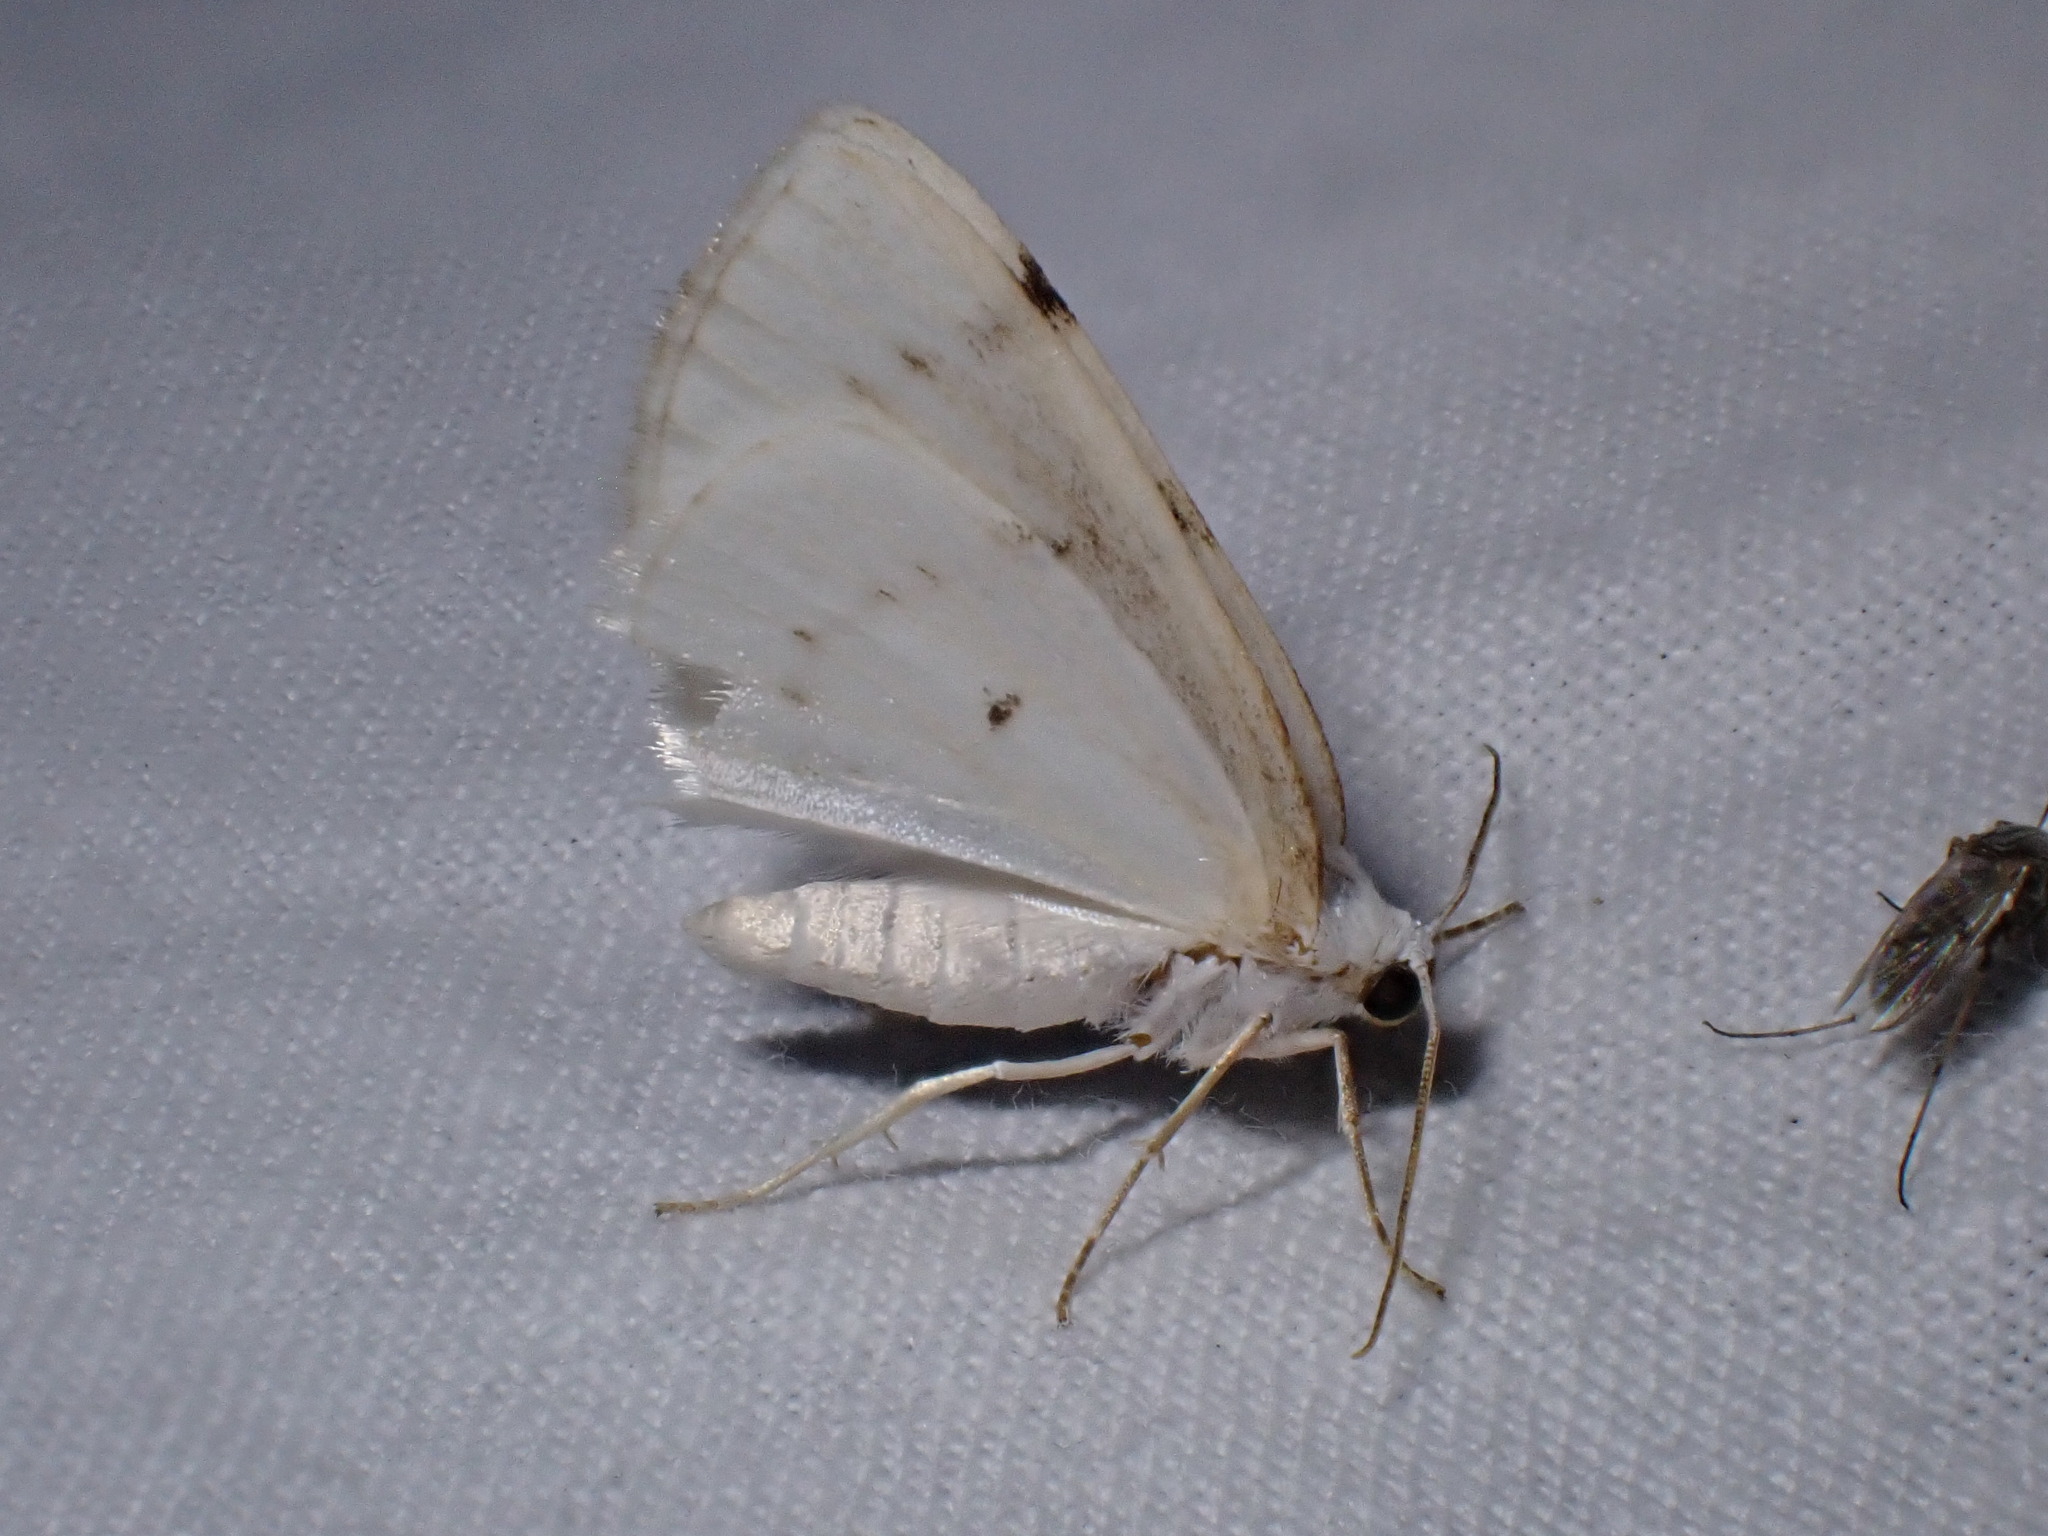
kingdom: Animalia
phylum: Arthropoda
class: Insecta
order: Lepidoptera
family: Geometridae
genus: Lomographa
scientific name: Lomographa bimaculata
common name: White-pinion spotted
